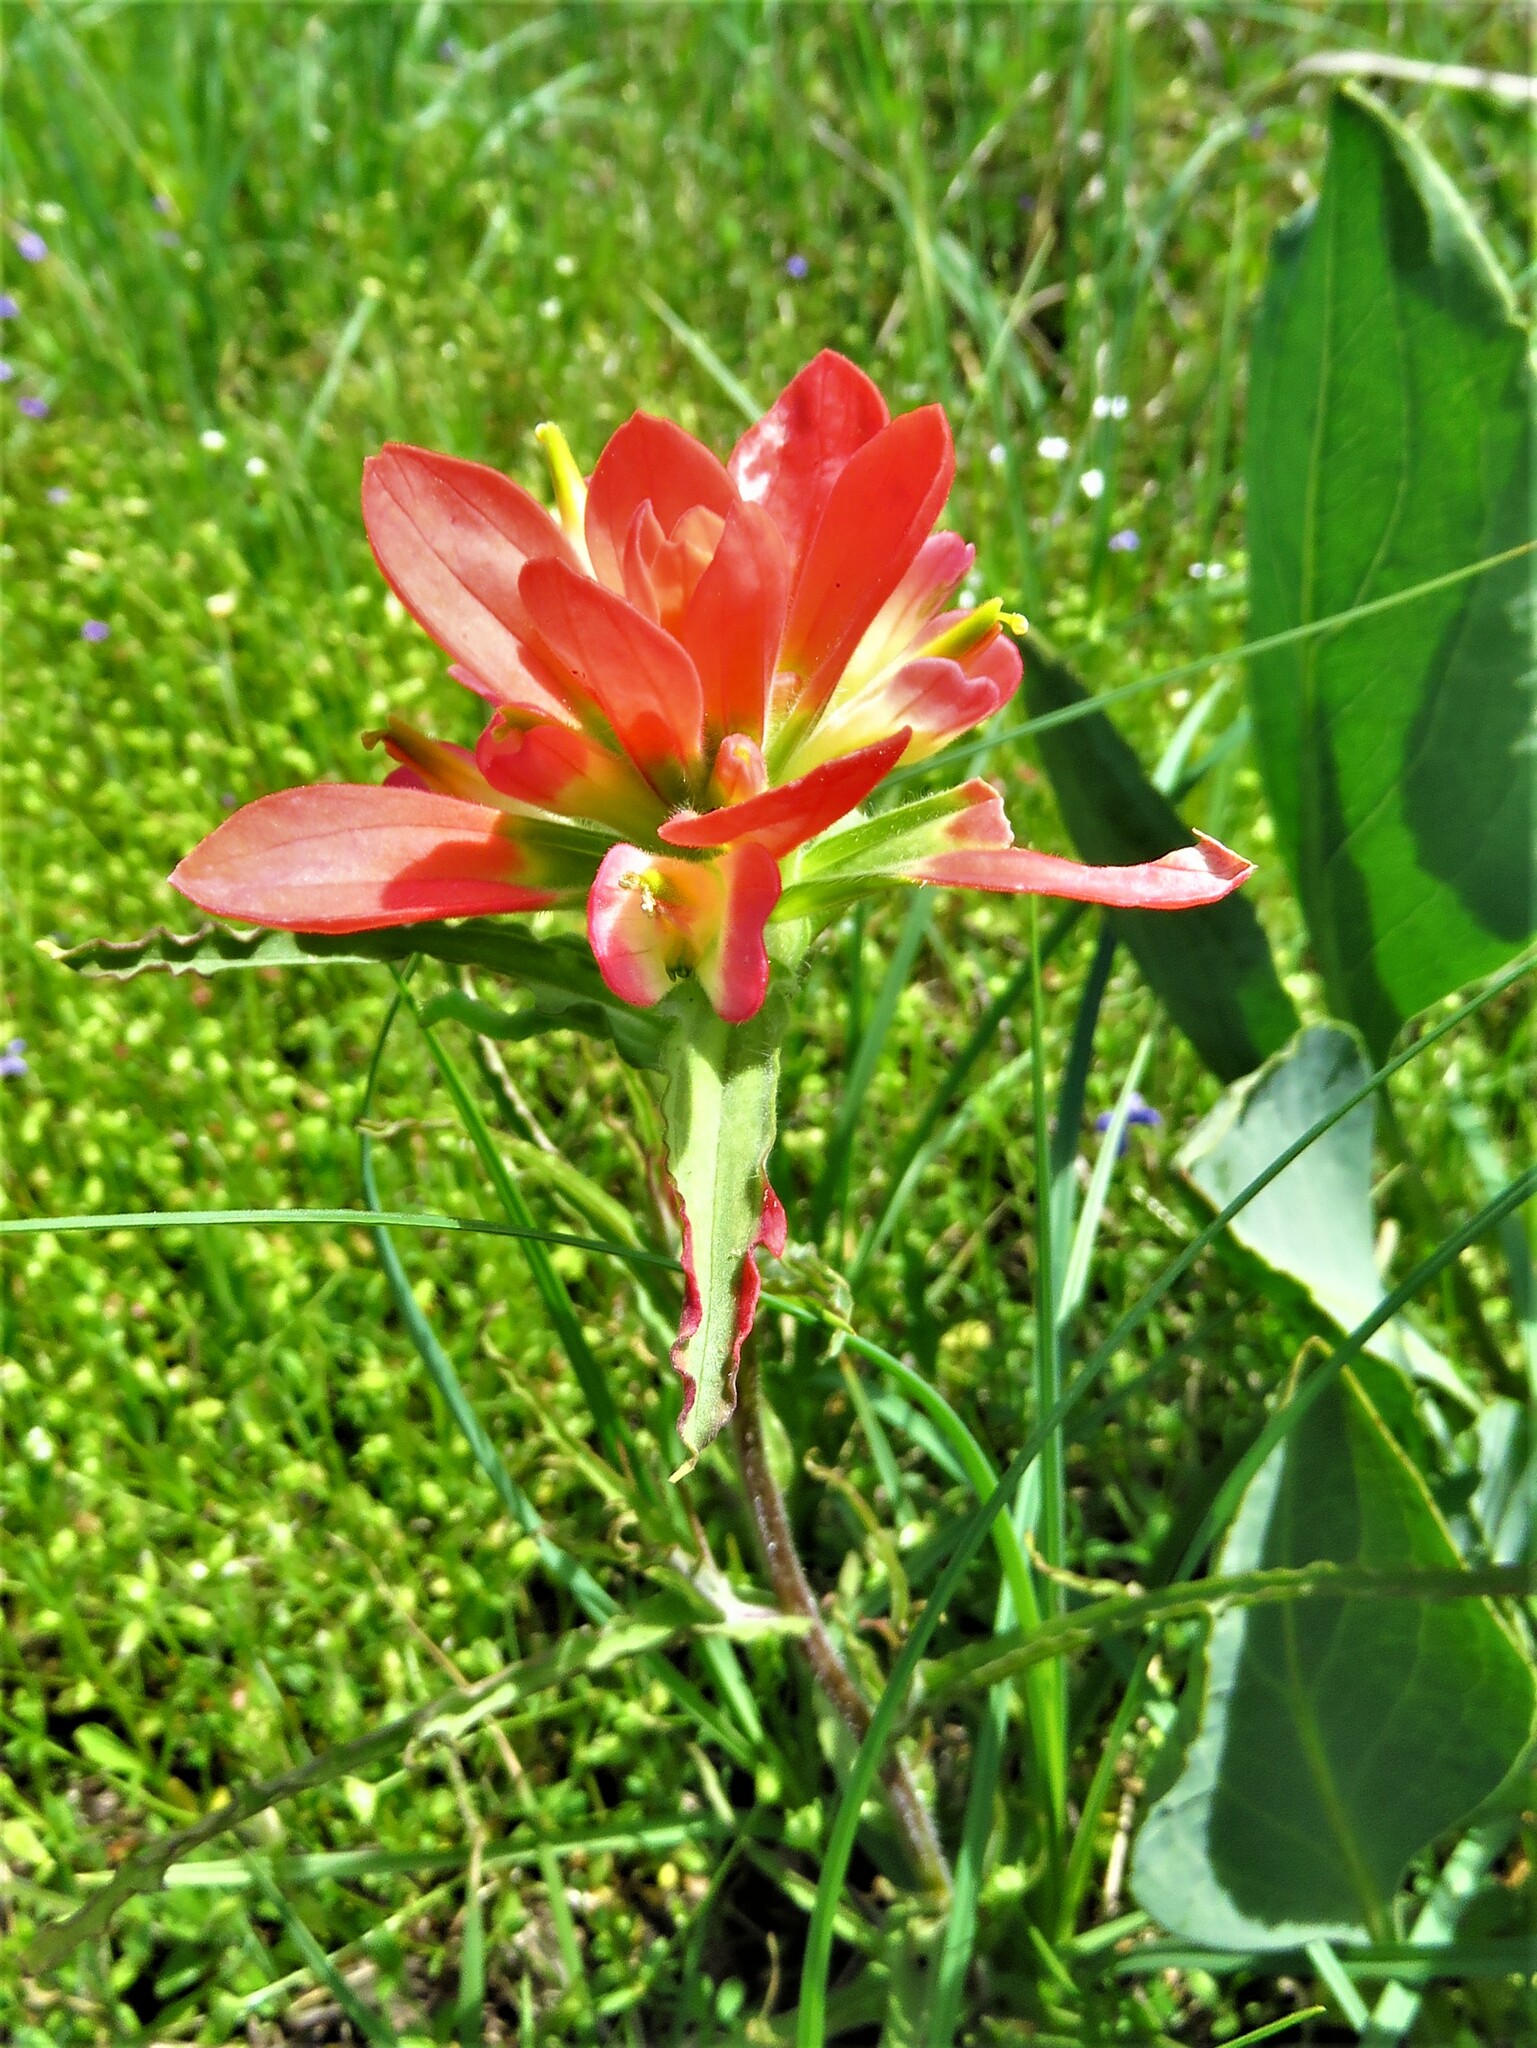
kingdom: Plantae
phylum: Tracheophyta
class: Magnoliopsida
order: Lamiales
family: Orobanchaceae
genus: Castilleja
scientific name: Castilleja indivisa
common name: Texas paintbrush
